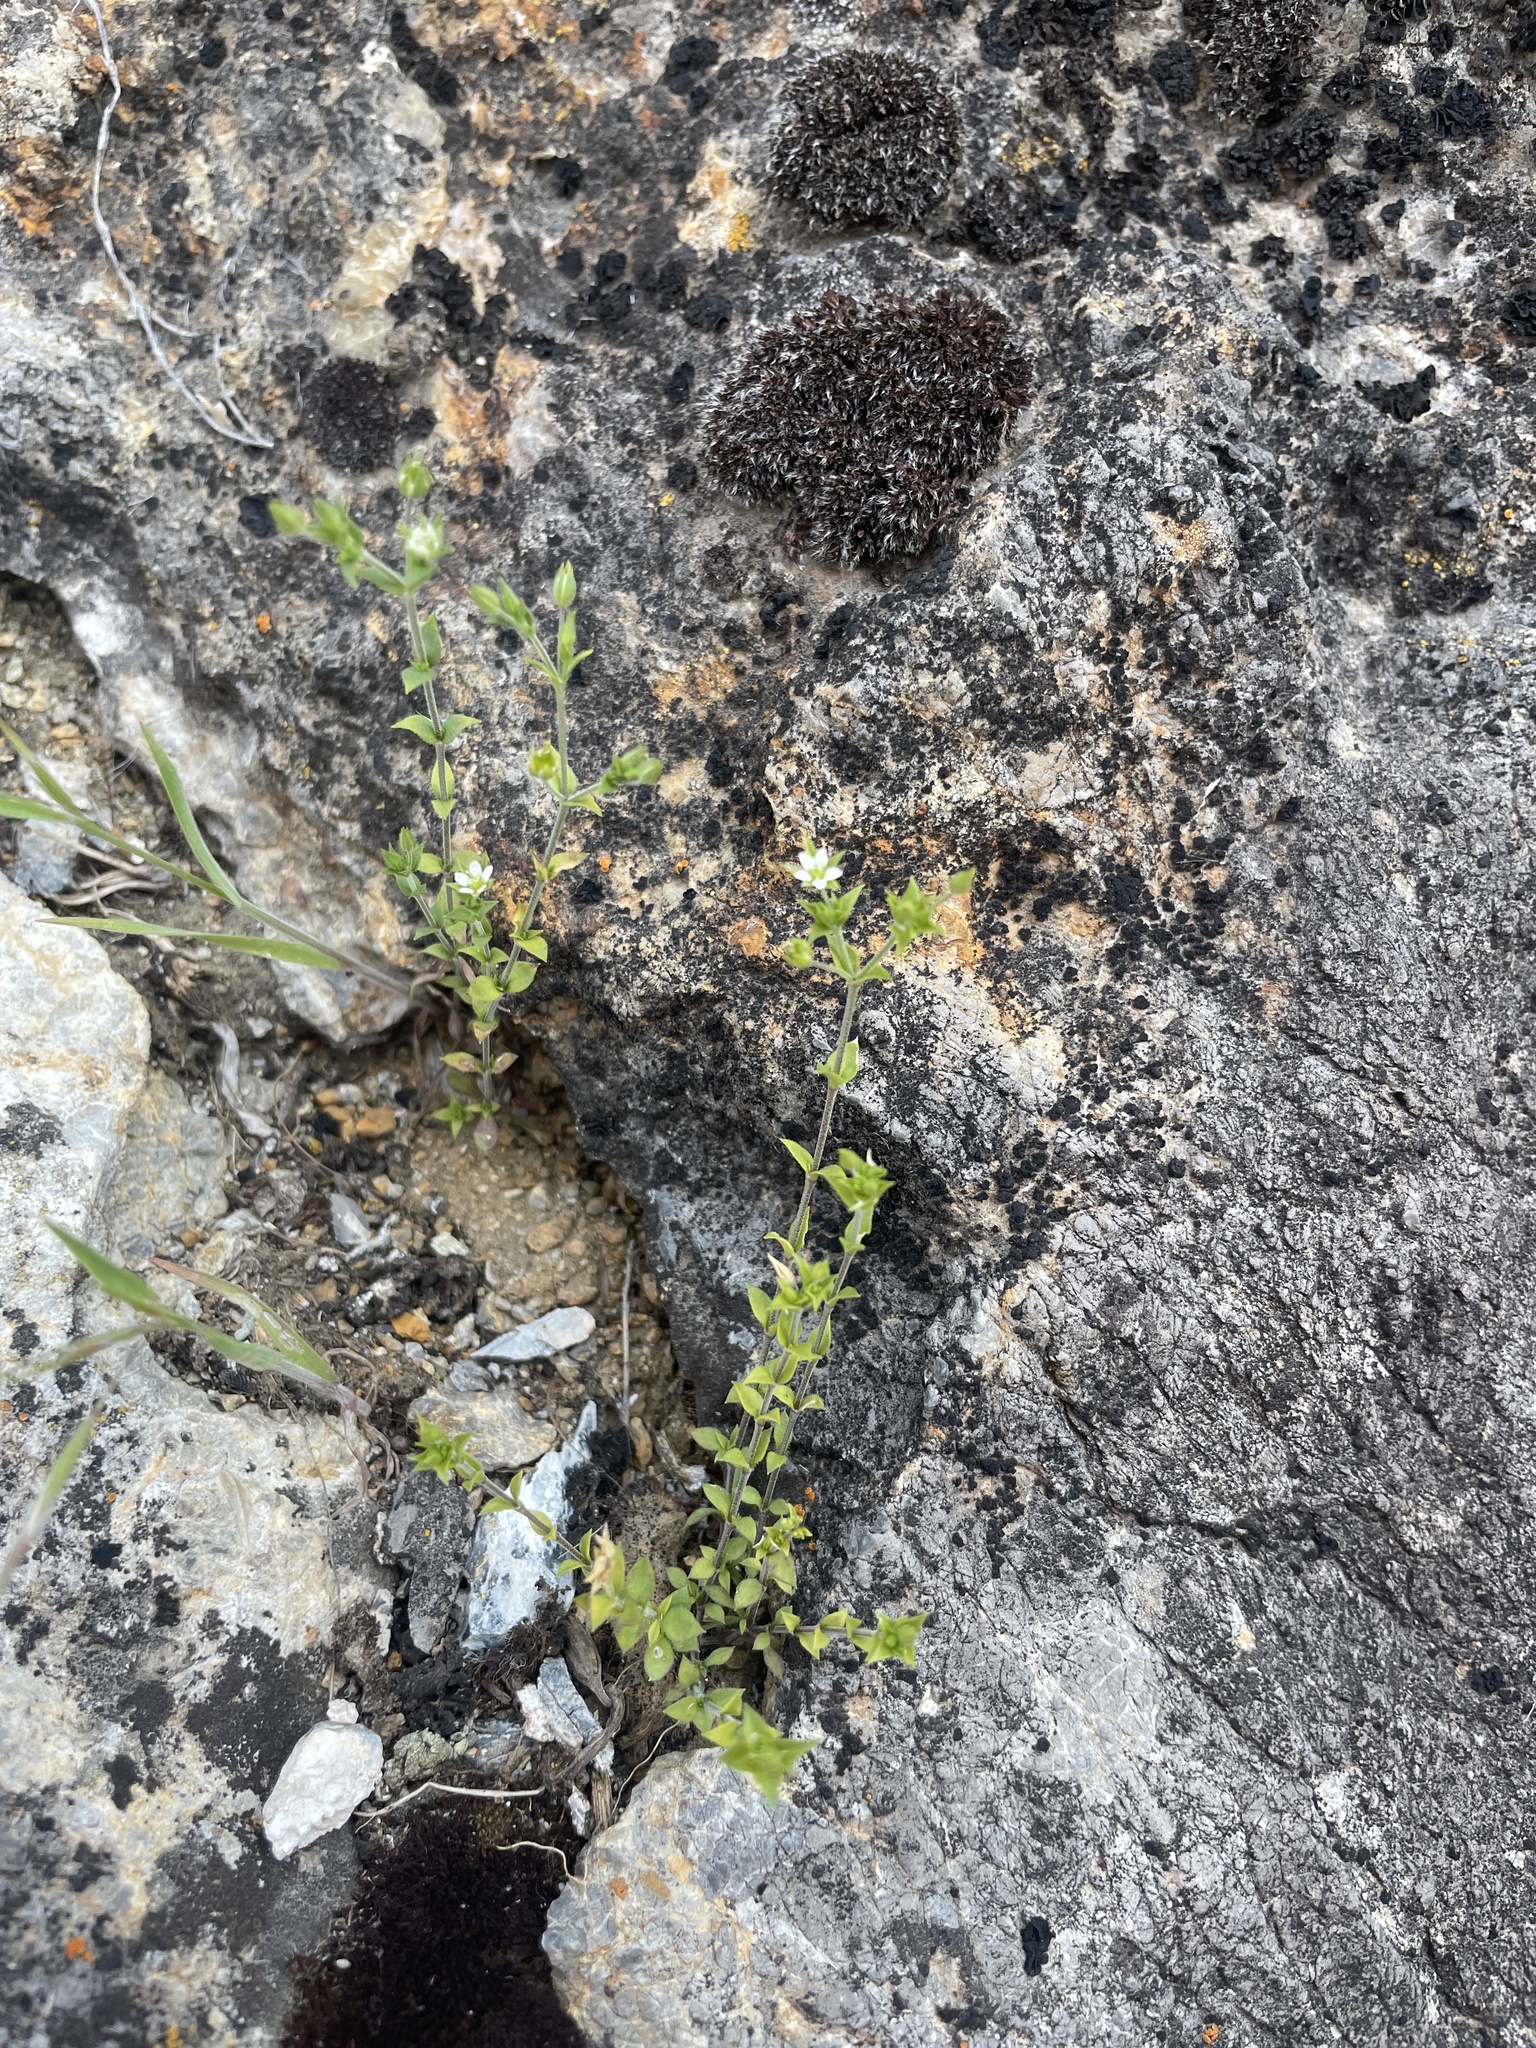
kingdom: Plantae
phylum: Tracheophyta
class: Magnoliopsida
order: Caryophyllales
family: Caryophyllaceae
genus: Arenaria
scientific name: Arenaria serpyllifolia
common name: Thyme-leaved sandwort
